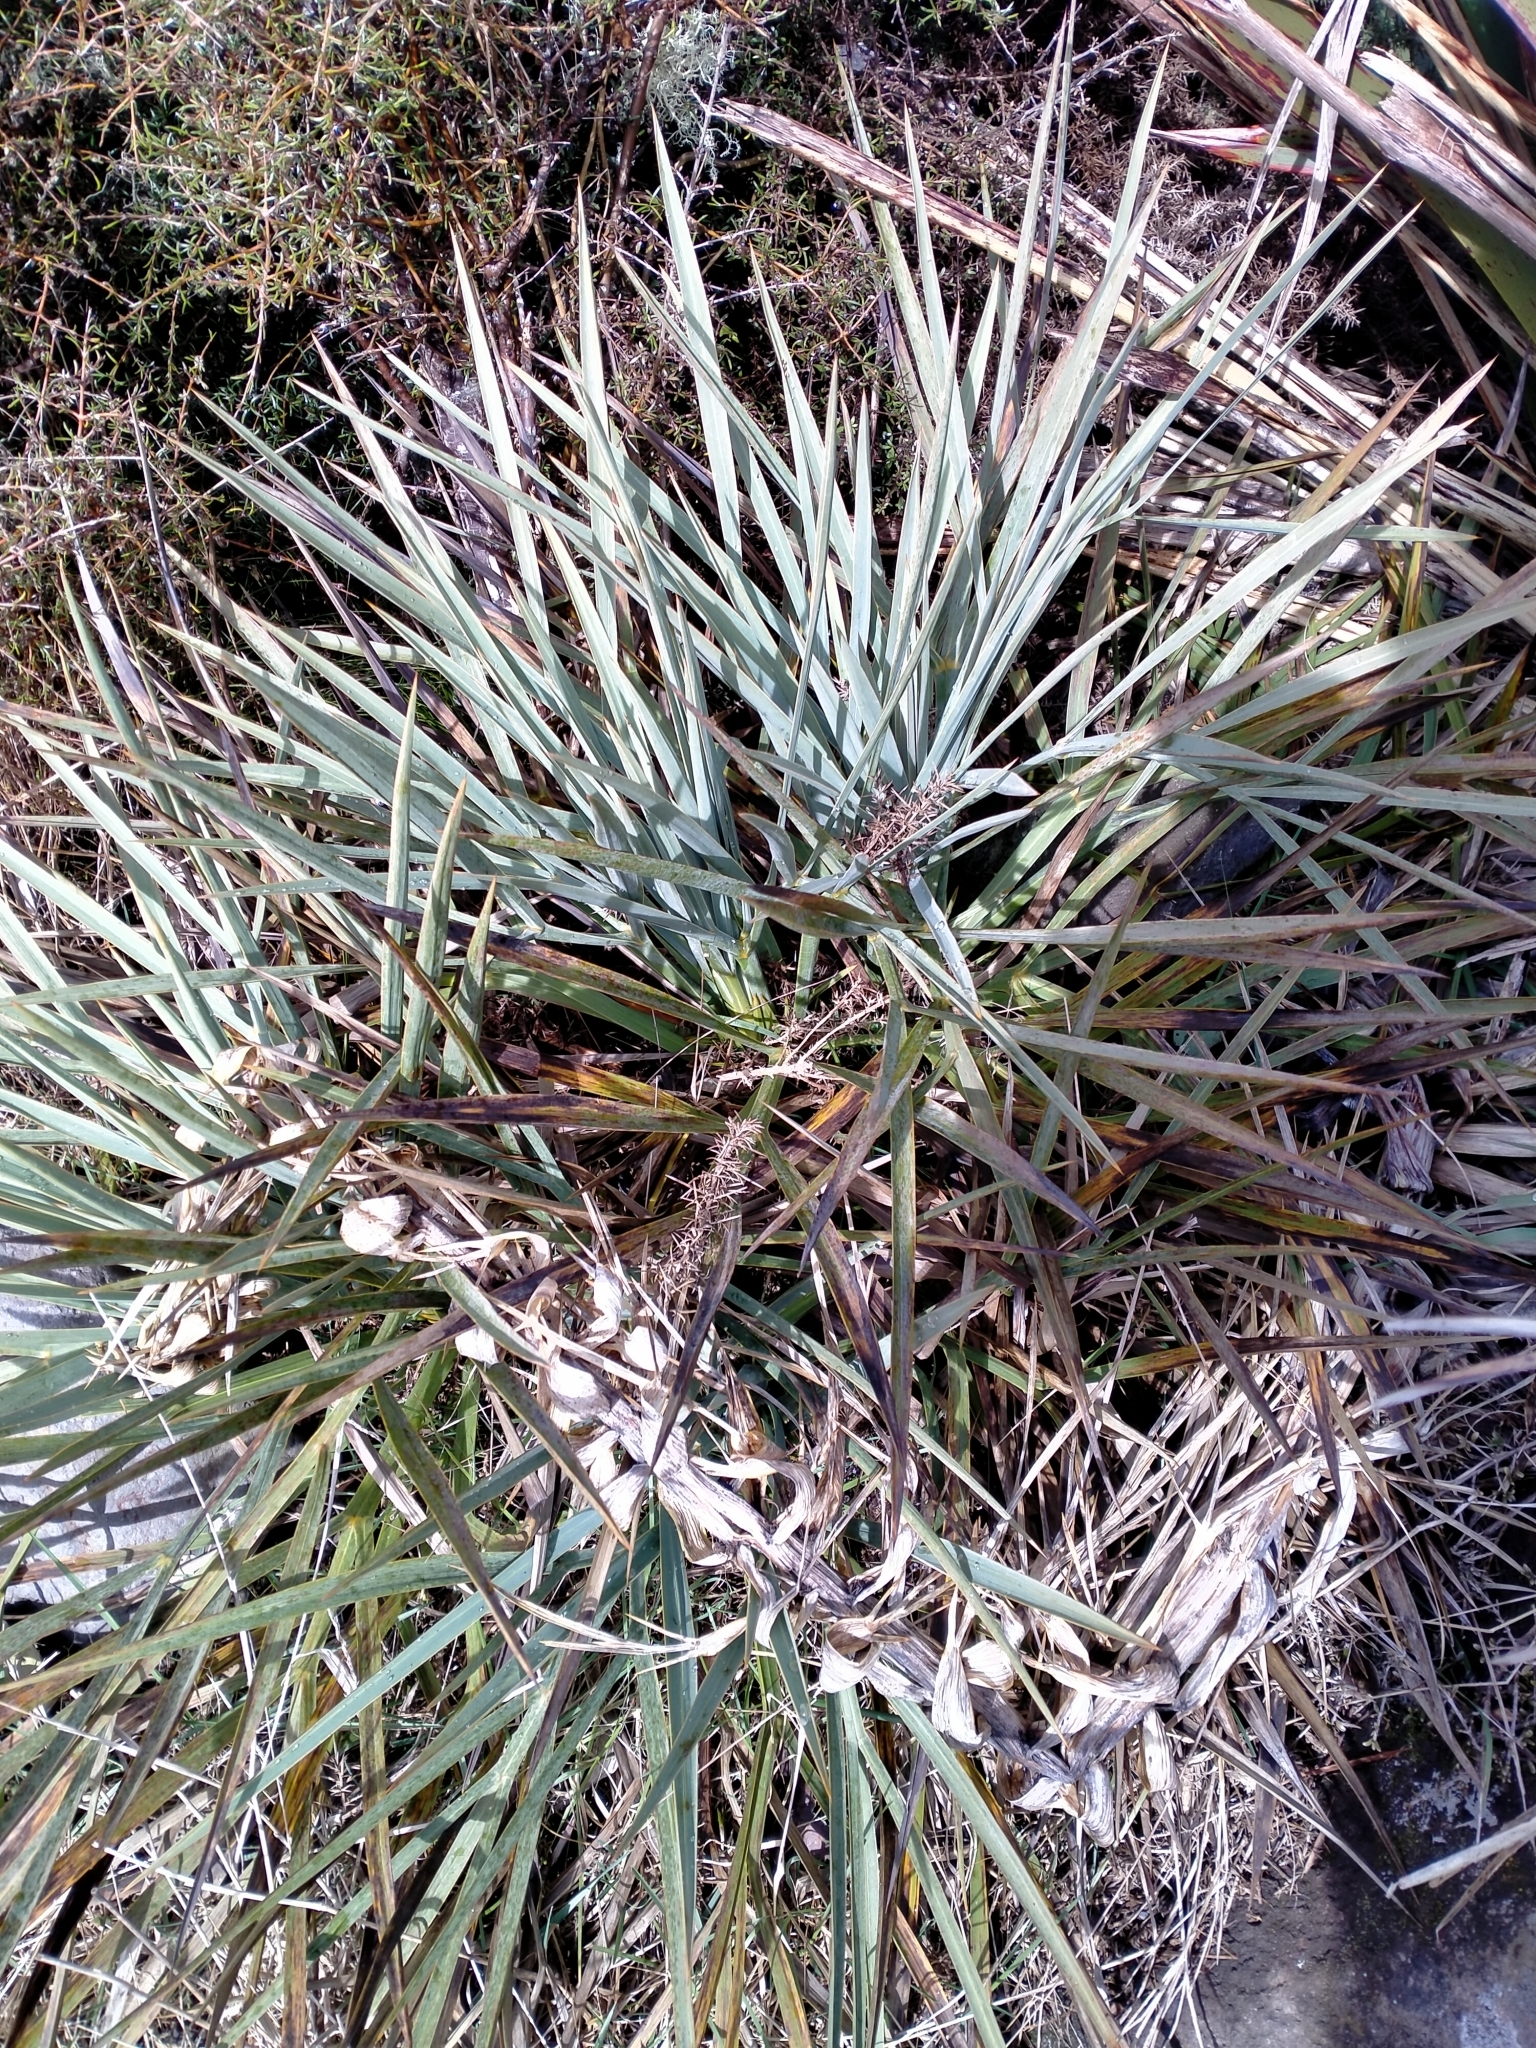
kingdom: Plantae
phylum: Tracheophyta
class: Magnoliopsida
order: Apiales
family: Apiaceae
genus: Aciphylla
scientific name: Aciphylla scott-thomsonii
